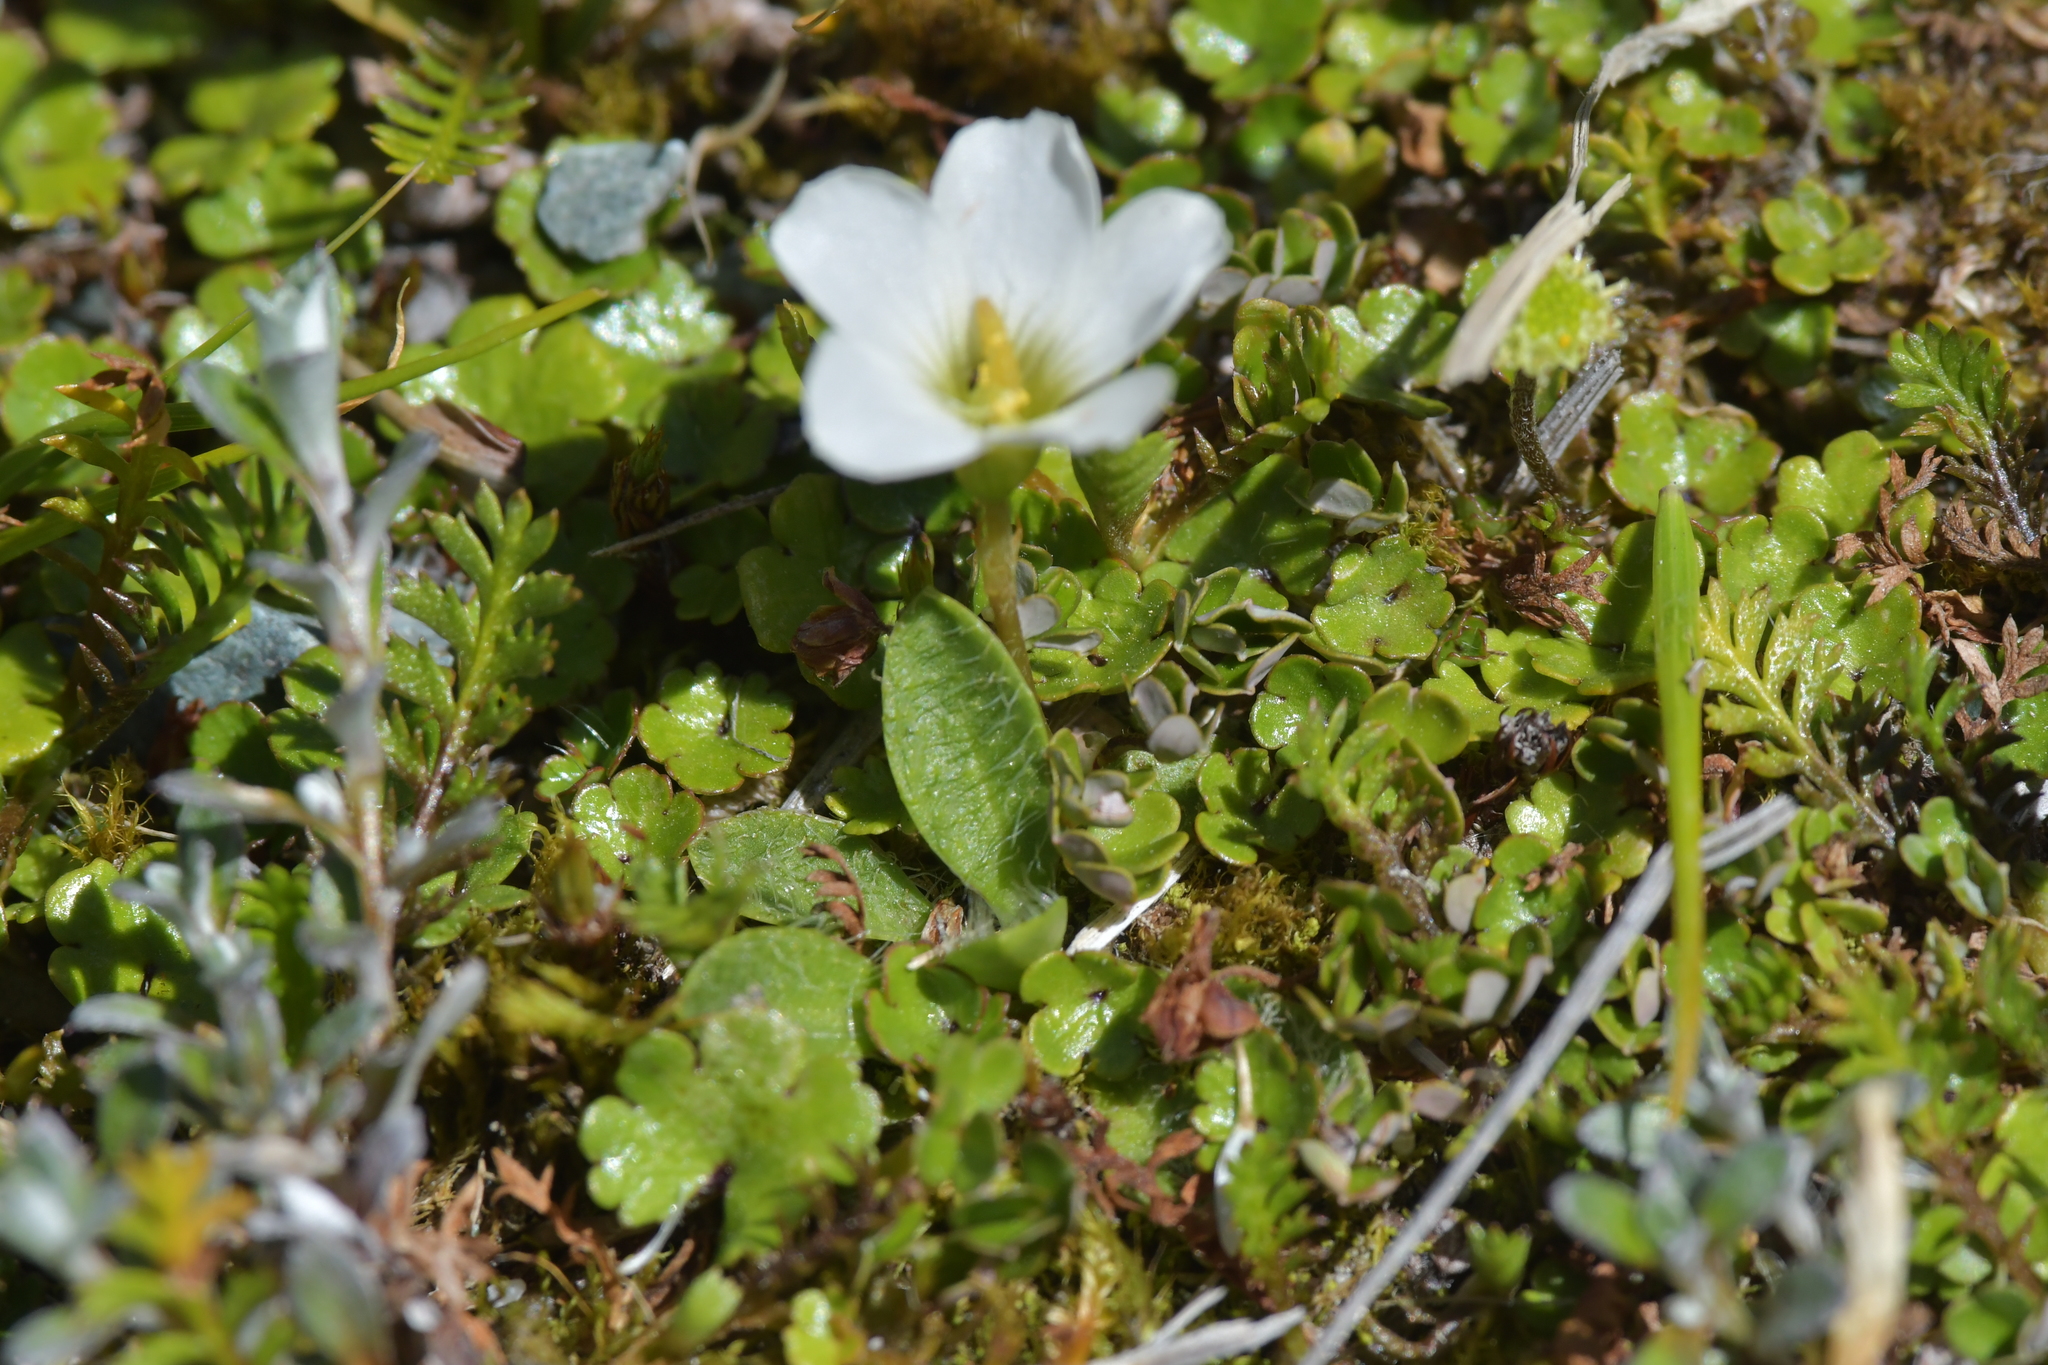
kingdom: Plantae
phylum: Tracheophyta
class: Magnoliopsida
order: Oxalidales
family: Oxalidaceae
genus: Oxalis
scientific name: Oxalis magellanica
